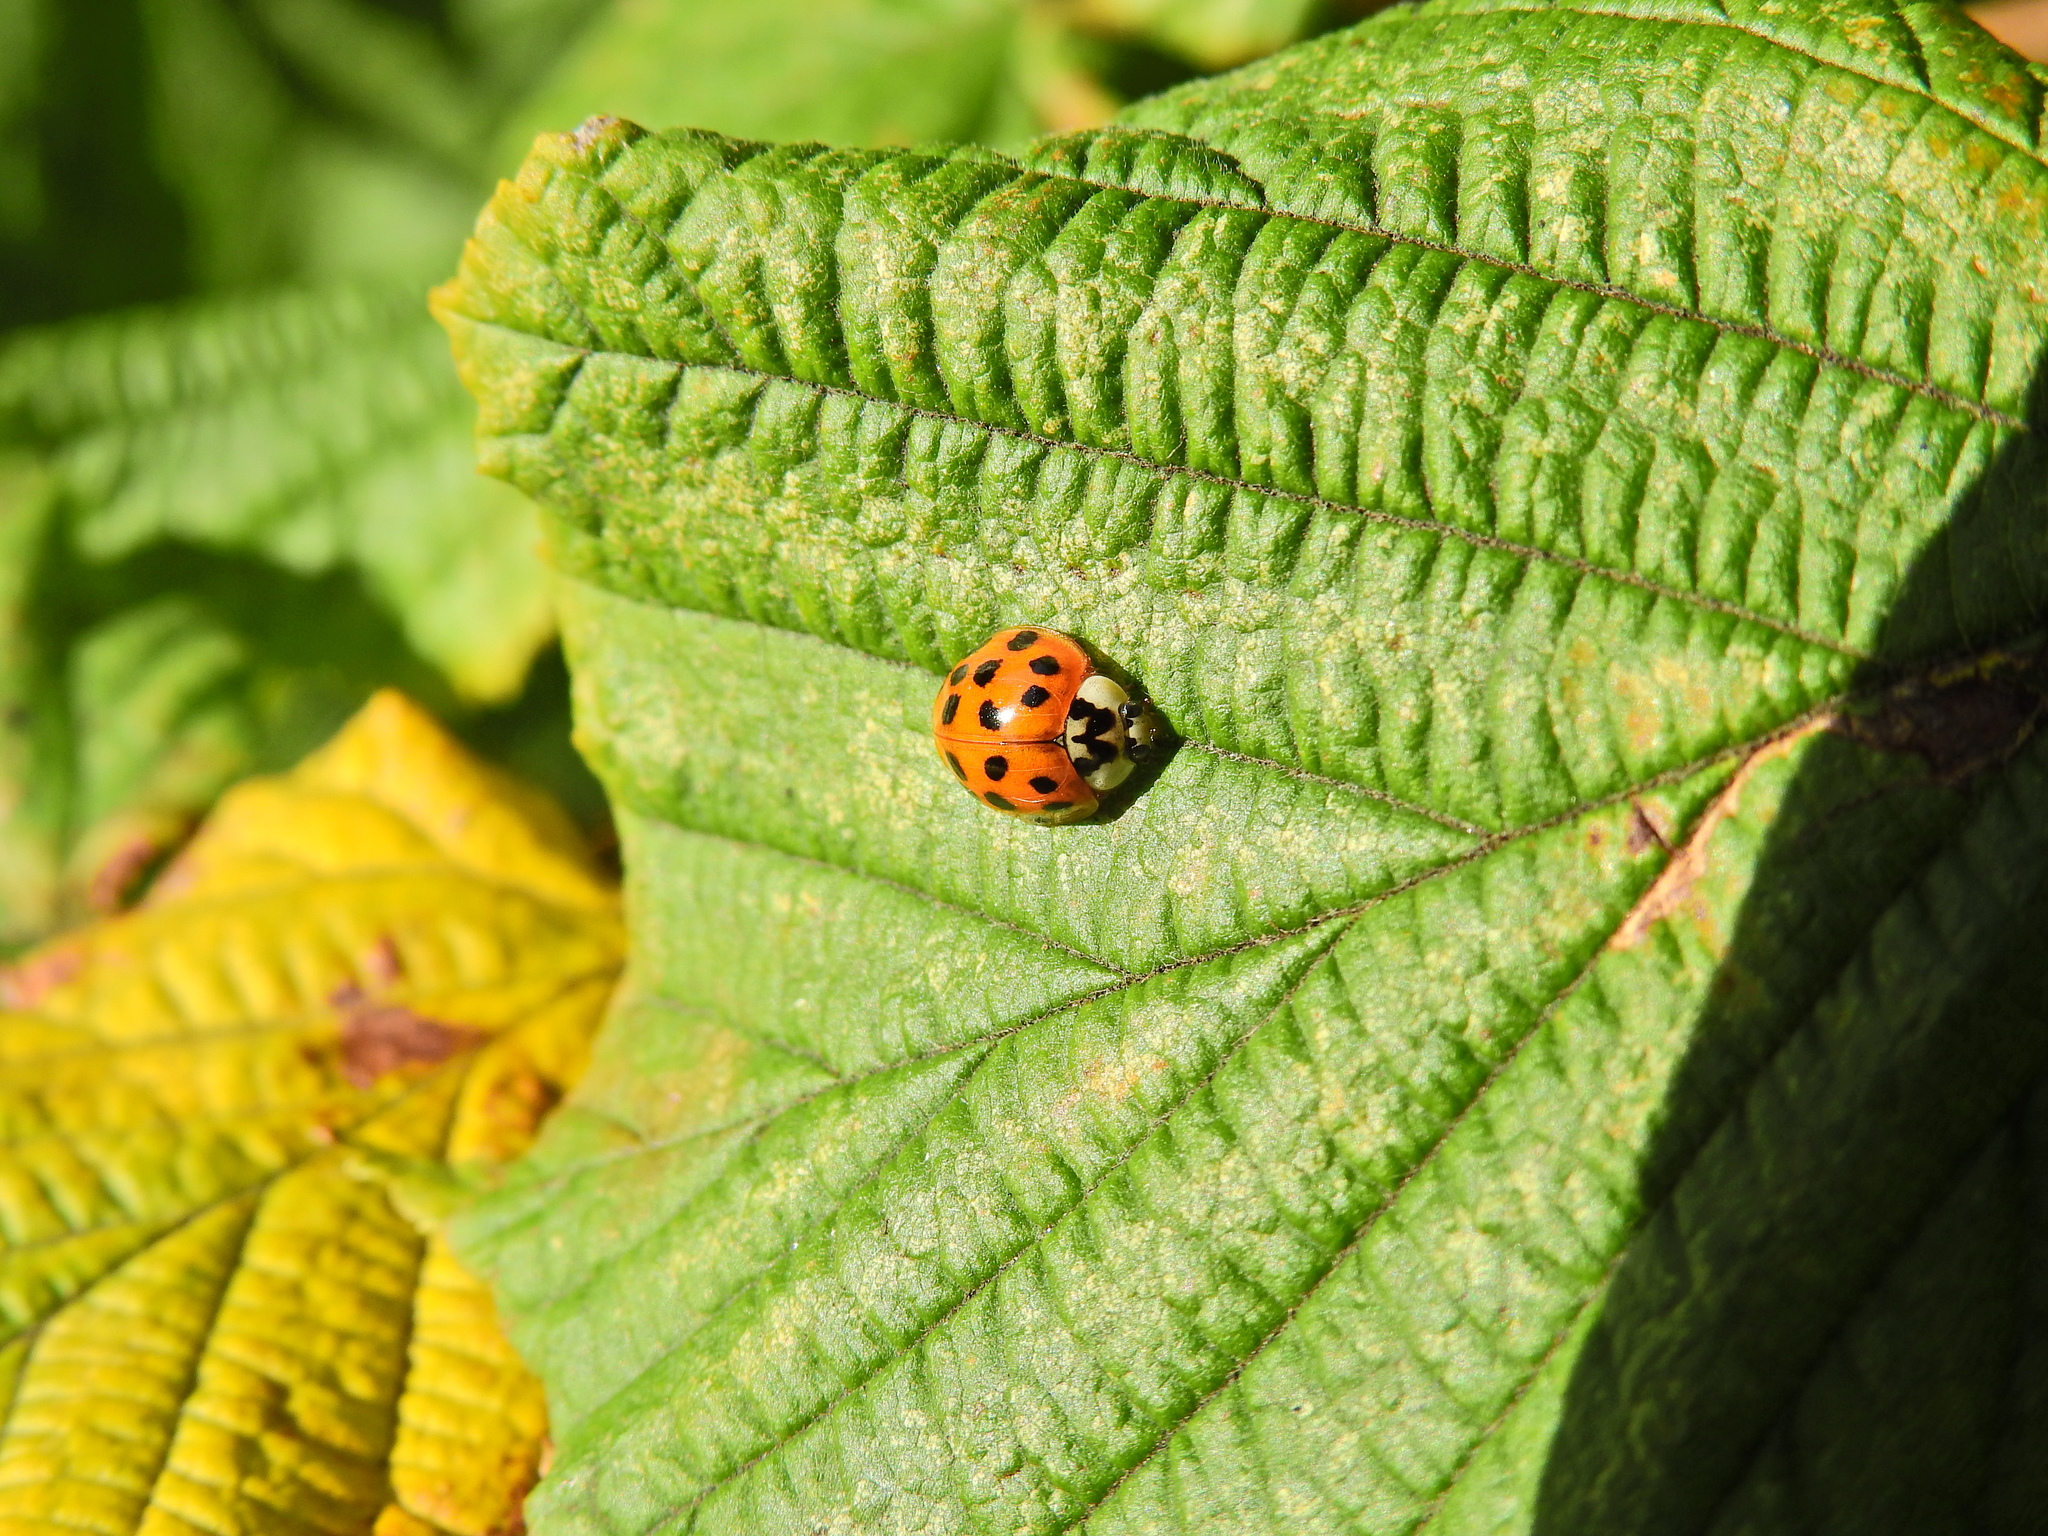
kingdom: Animalia
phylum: Arthropoda
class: Insecta
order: Coleoptera
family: Coccinellidae
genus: Harmonia
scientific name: Harmonia axyridis
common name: Harlequin ladybird
